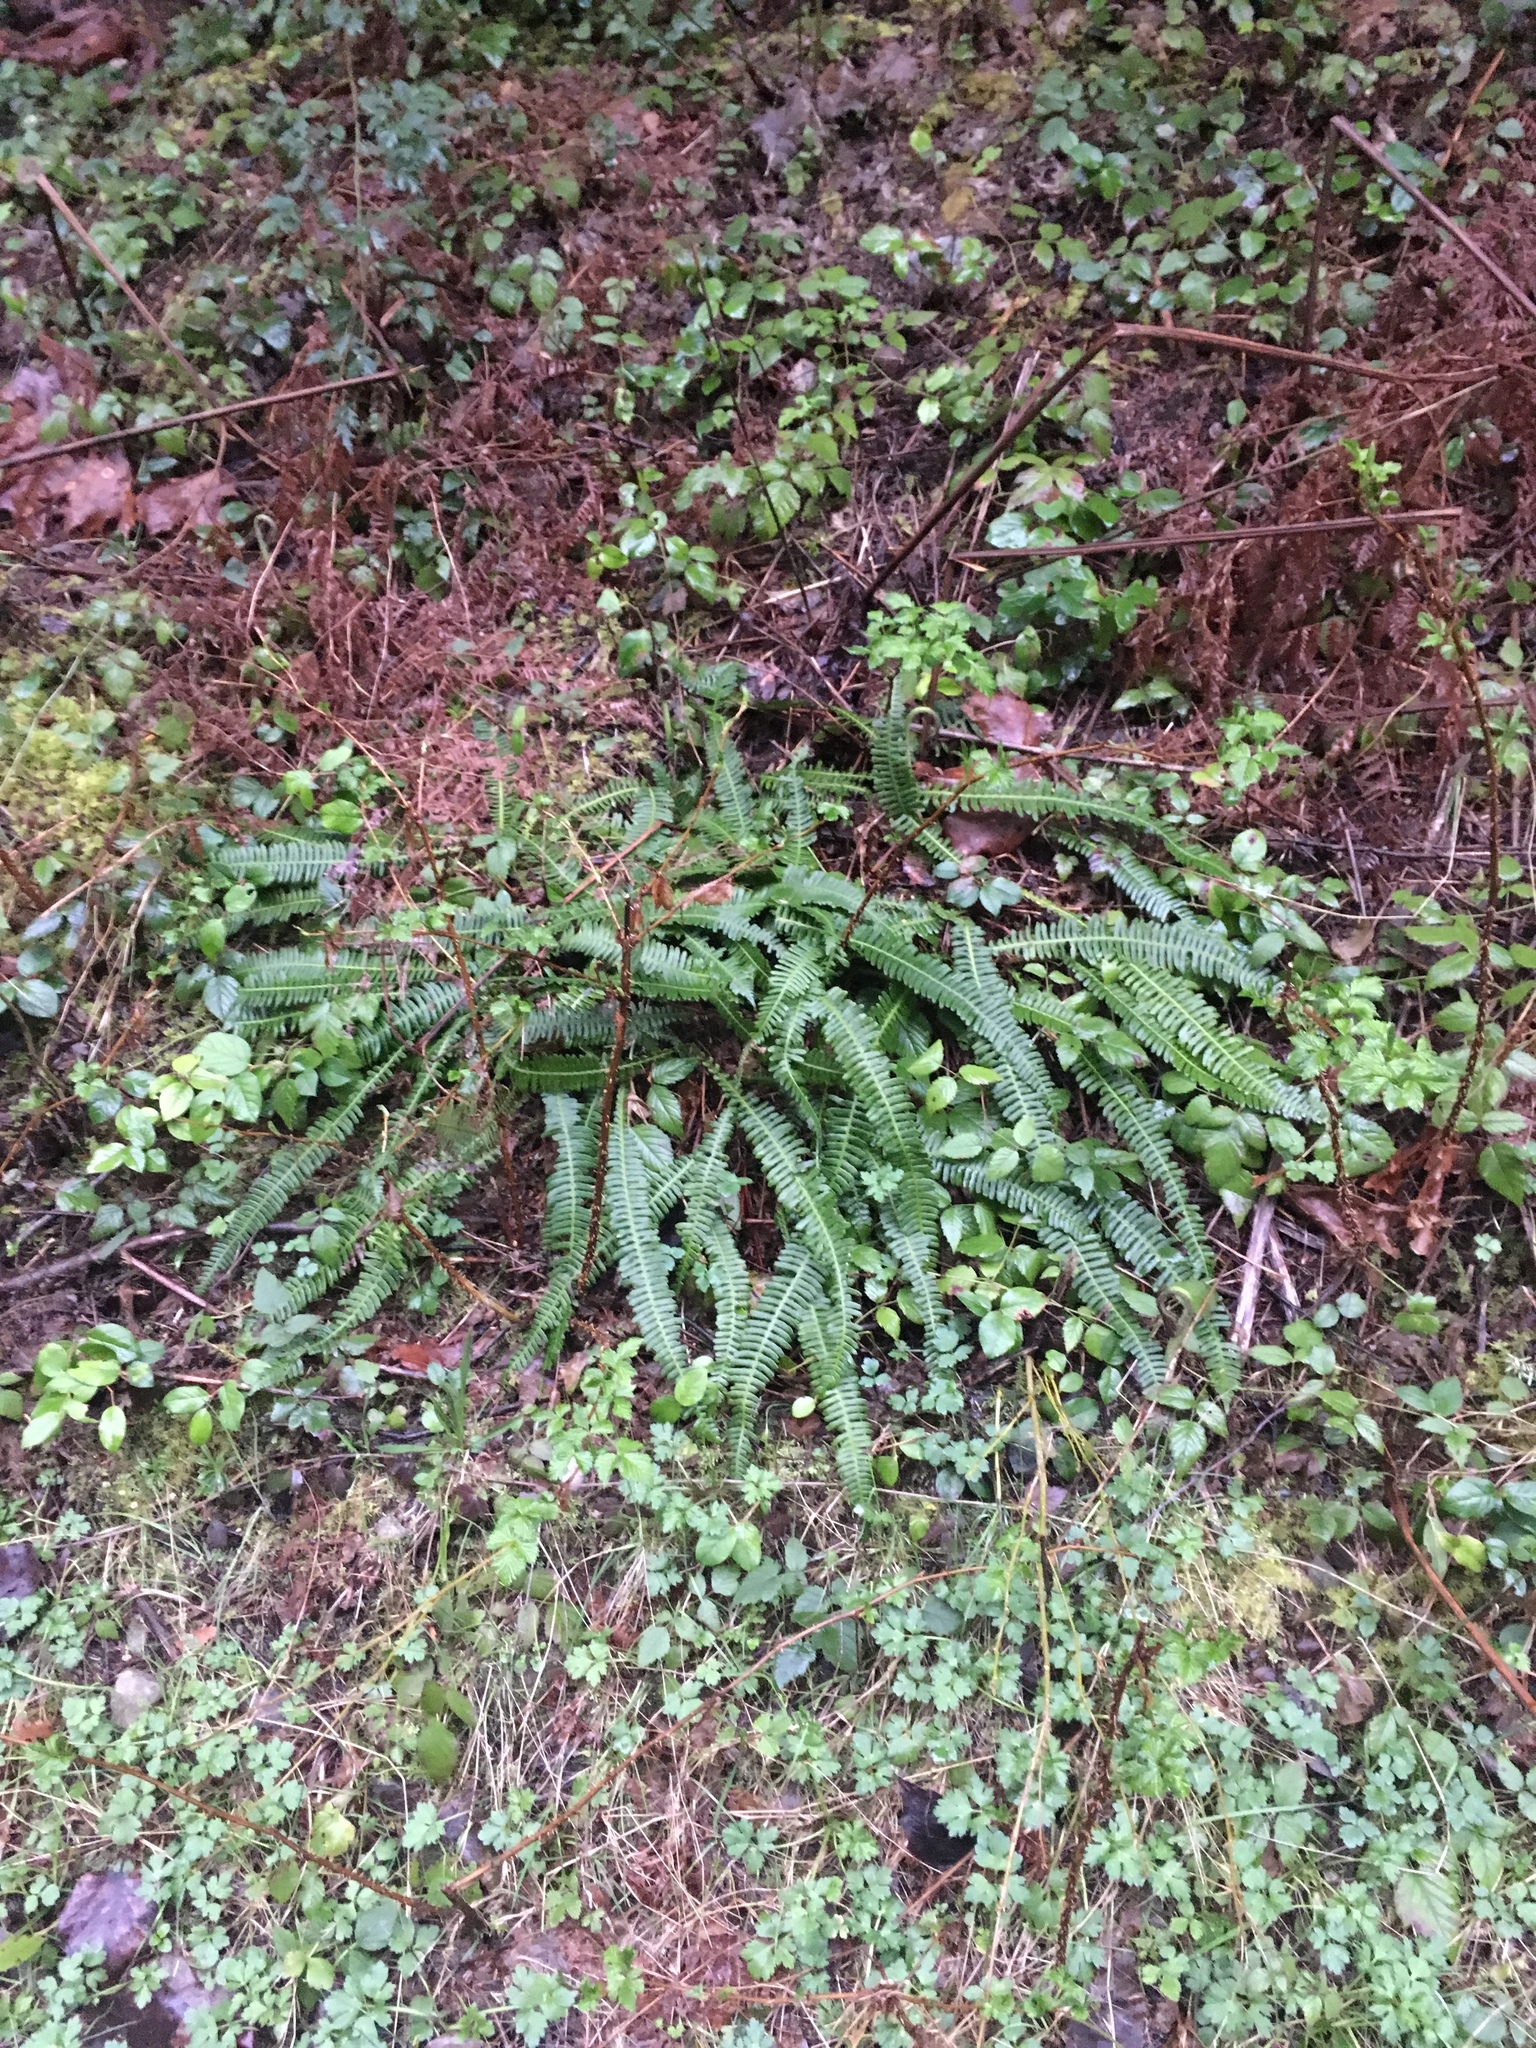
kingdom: Plantae
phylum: Tracheophyta
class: Polypodiopsida
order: Polypodiales
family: Blechnaceae
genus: Struthiopteris
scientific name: Struthiopteris spicant
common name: Deer fern
